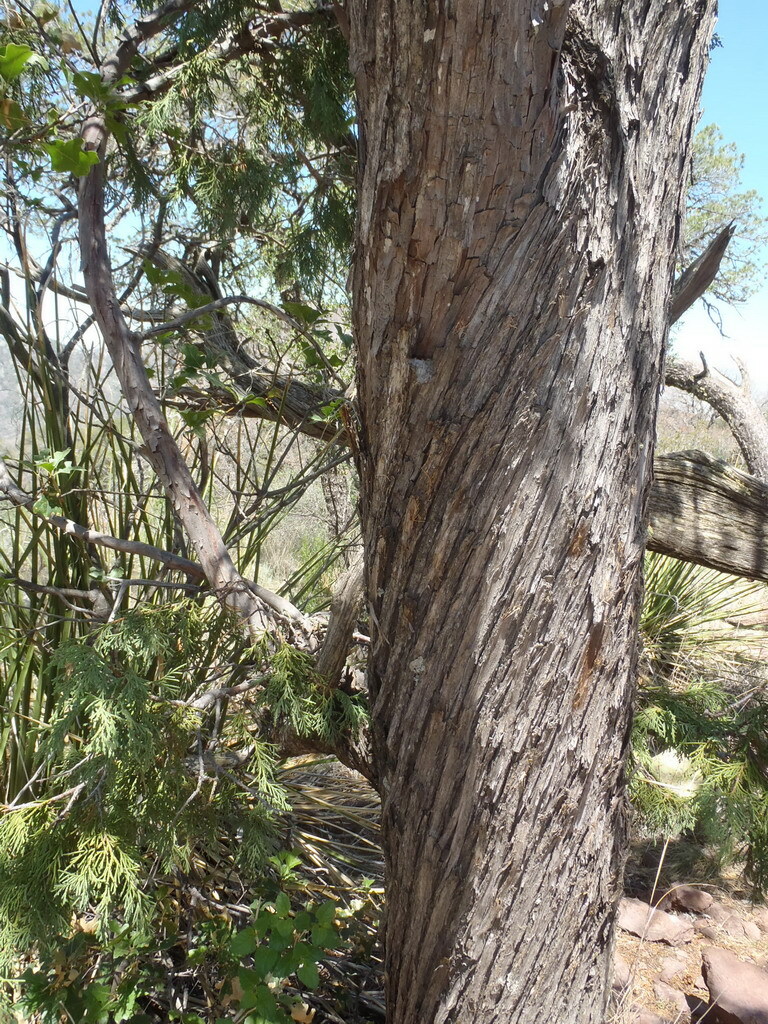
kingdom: Plantae
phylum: Tracheophyta
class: Pinopsida
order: Pinales
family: Cupressaceae
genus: Juniperus
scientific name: Juniperus flaccida
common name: Drooping juniper
